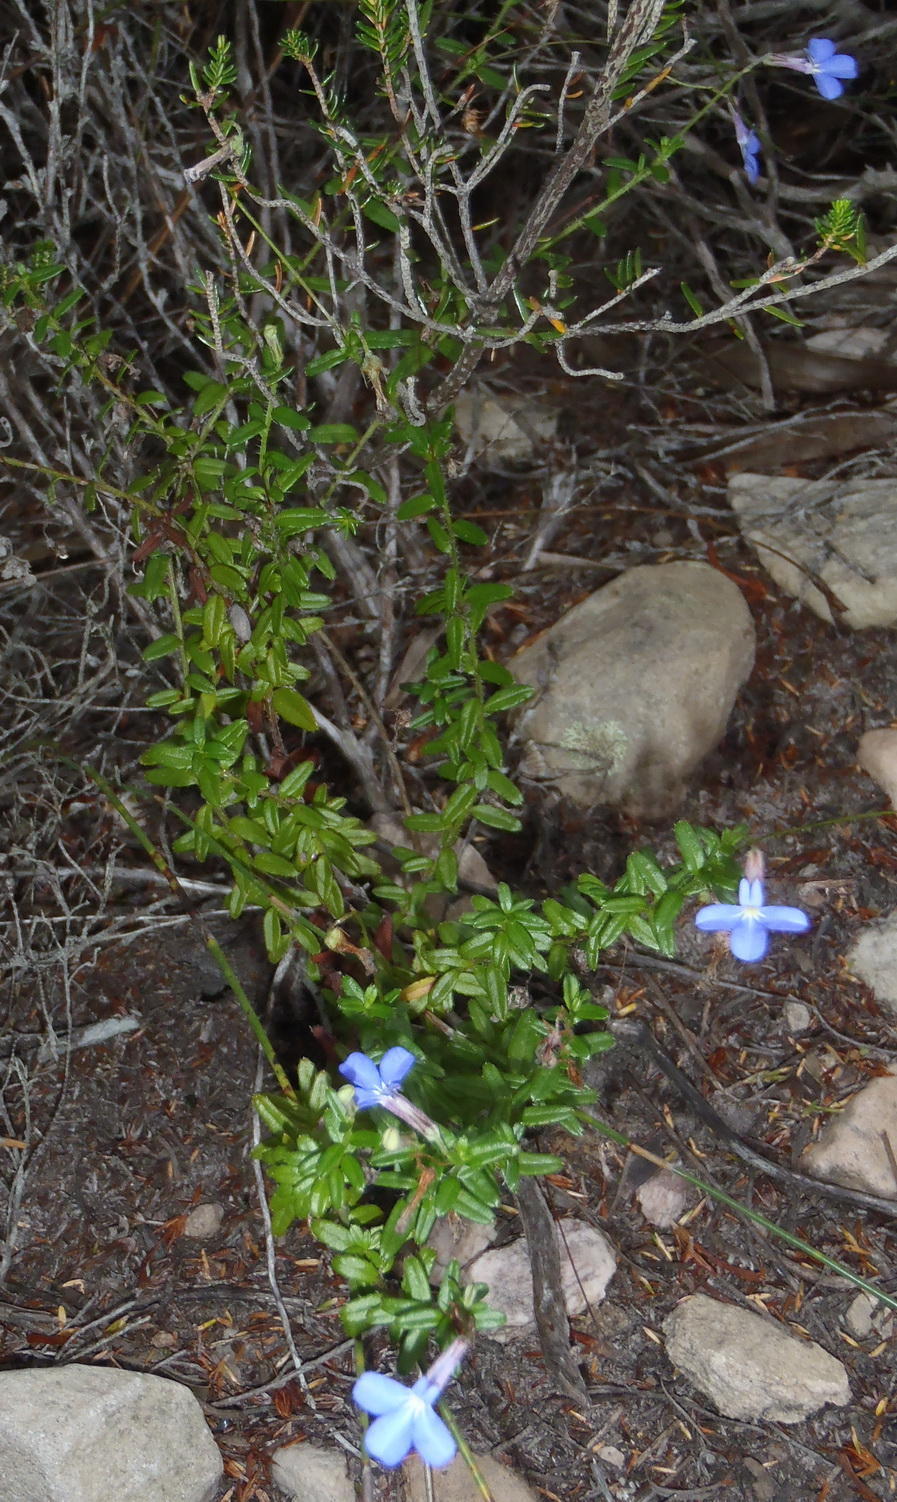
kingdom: Plantae
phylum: Tracheophyta
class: Magnoliopsida
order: Asterales
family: Campanulaceae
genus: Lobelia
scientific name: Lobelia neglecta
